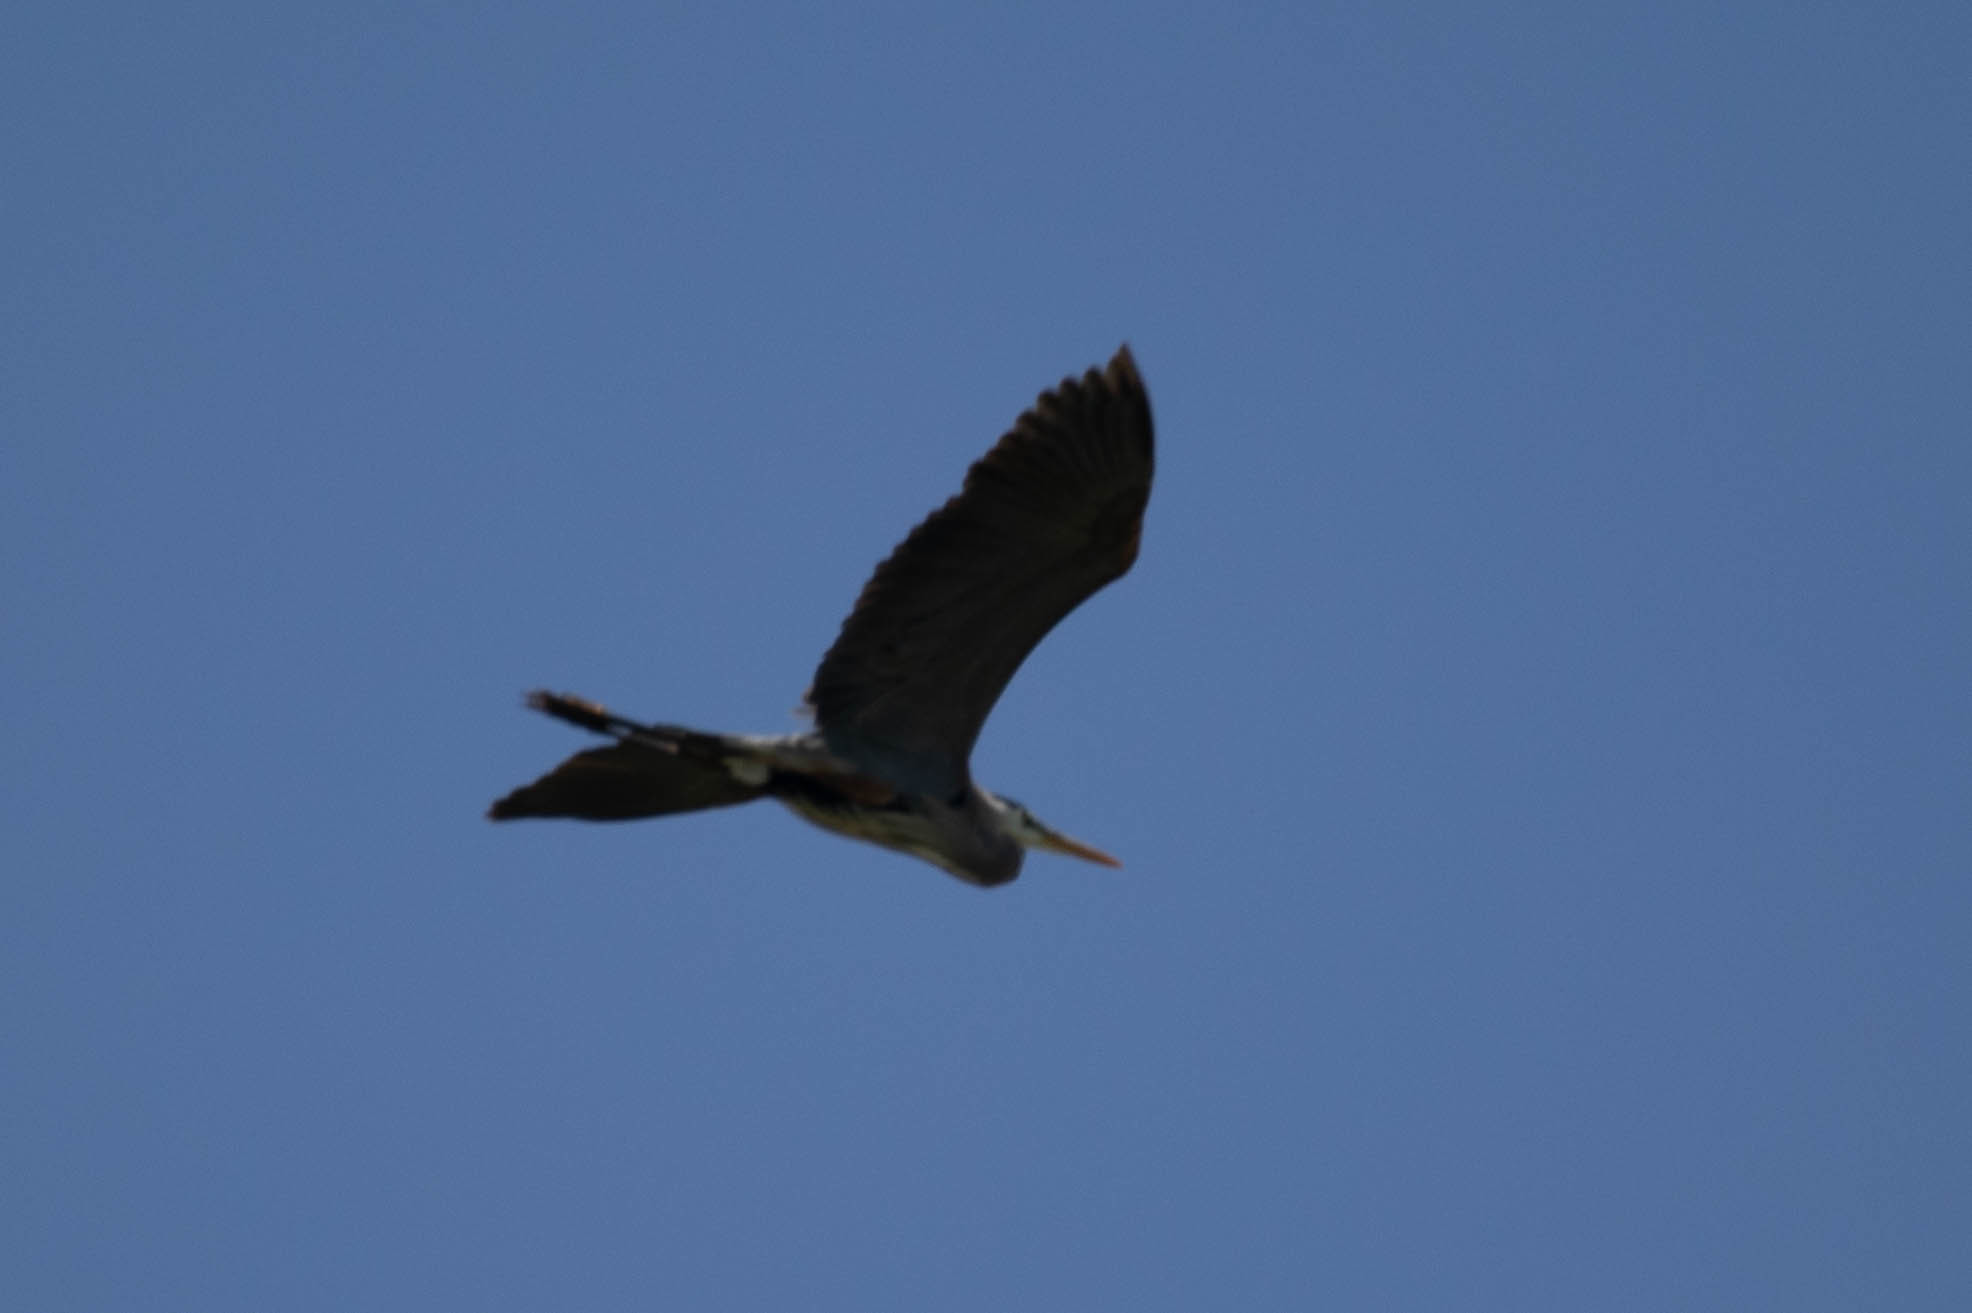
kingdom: Animalia
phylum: Chordata
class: Aves
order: Pelecaniformes
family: Ardeidae
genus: Ardea
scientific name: Ardea herodias
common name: Great blue heron
